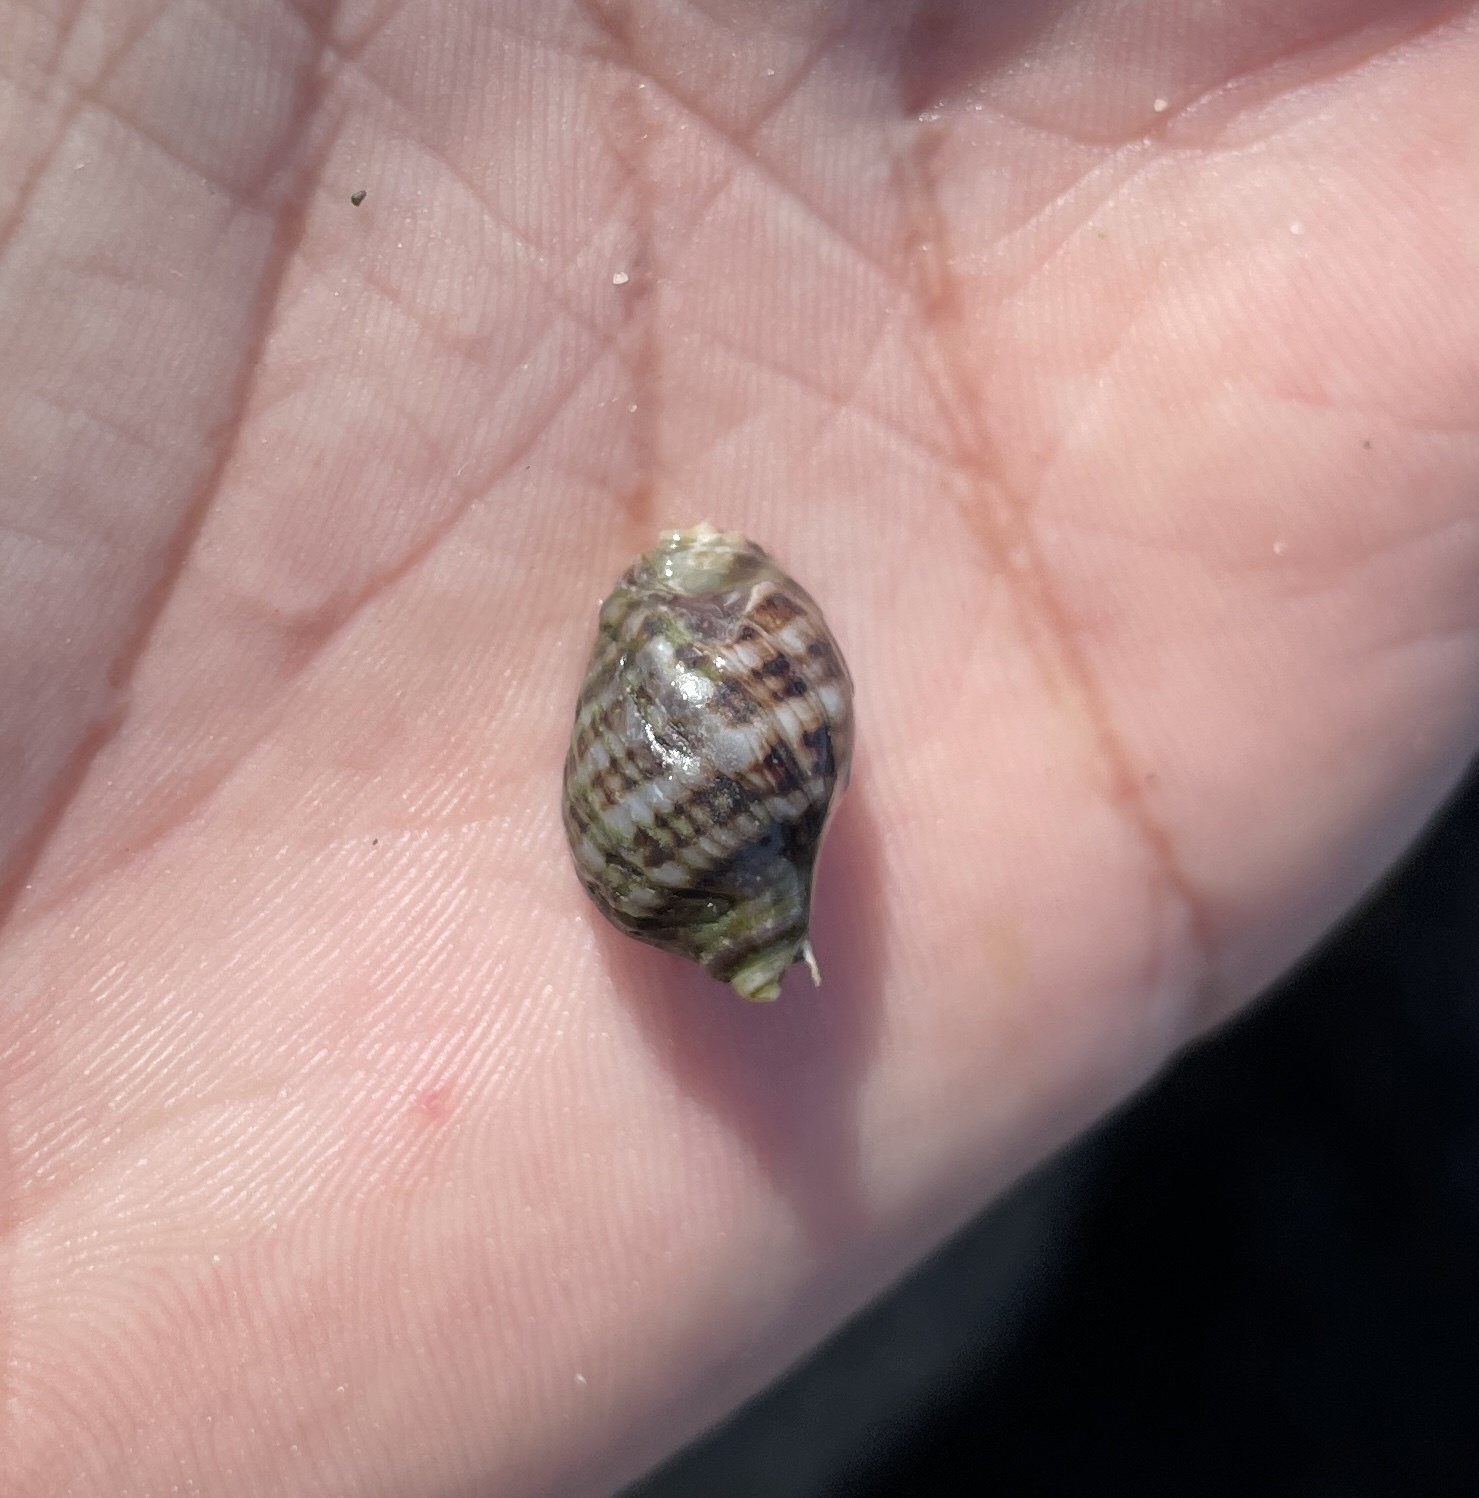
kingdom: Animalia
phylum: Mollusca
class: Gastropoda
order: Neogastropoda
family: Muricidae
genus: Nucella
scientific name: Nucella ostrina
